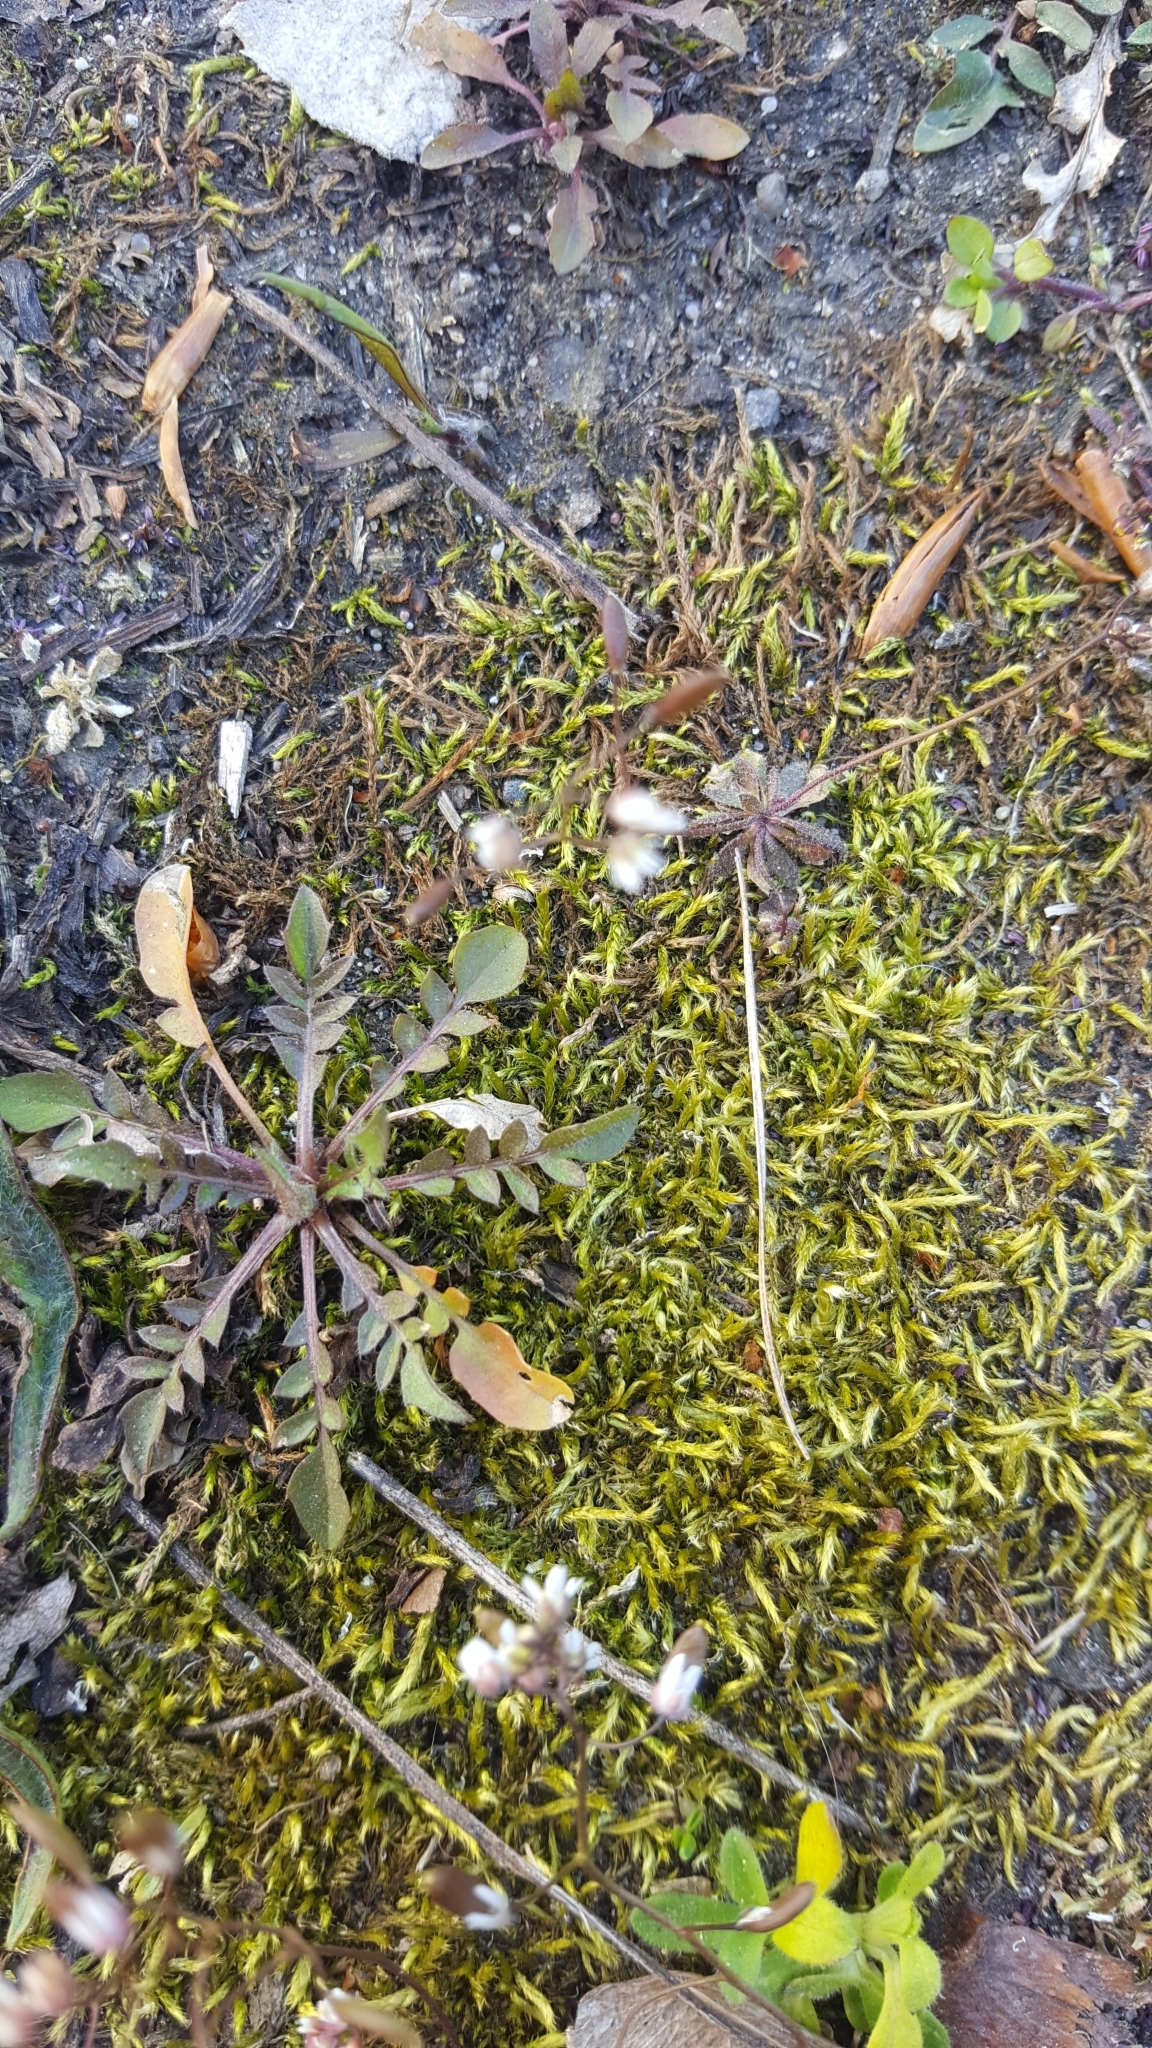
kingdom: Plantae
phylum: Tracheophyta
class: Magnoliopsida
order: Brassicales
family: Brassicaceae
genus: Capsella
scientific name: Capsella bursa-pastoris
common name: Shepherd's purse
